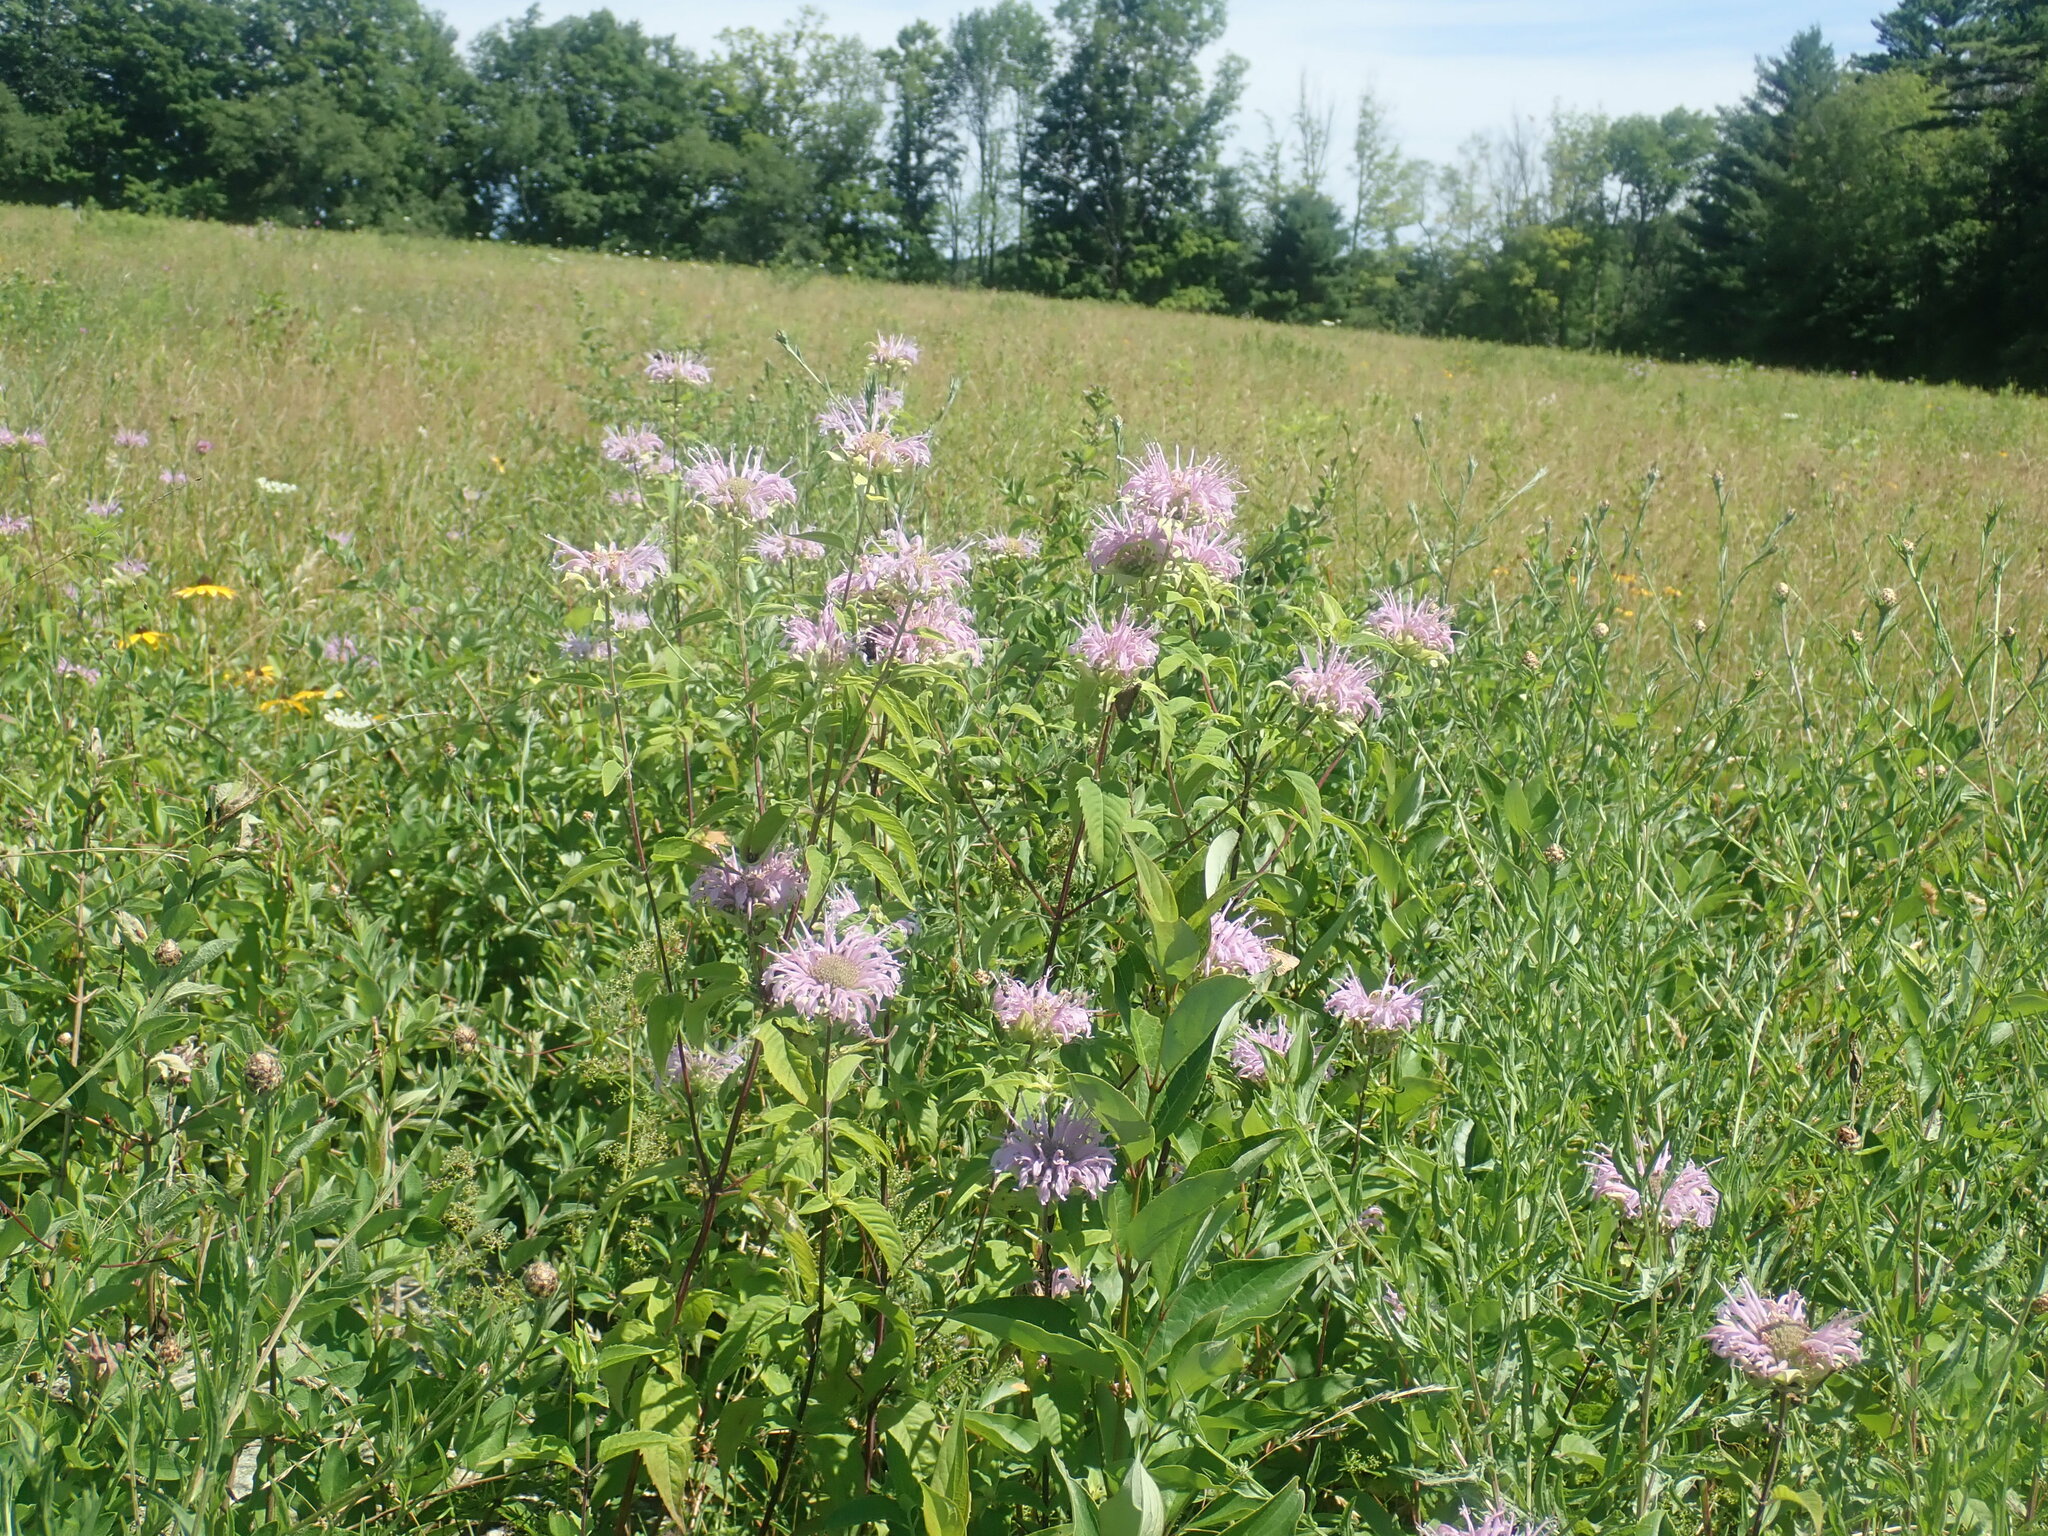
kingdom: Plantae
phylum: Tracheophyta
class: Magnoliopsida
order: Lamiales
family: Lamiaceae
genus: Monarda
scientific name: Monarda fistulosa
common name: Purple beebalm
